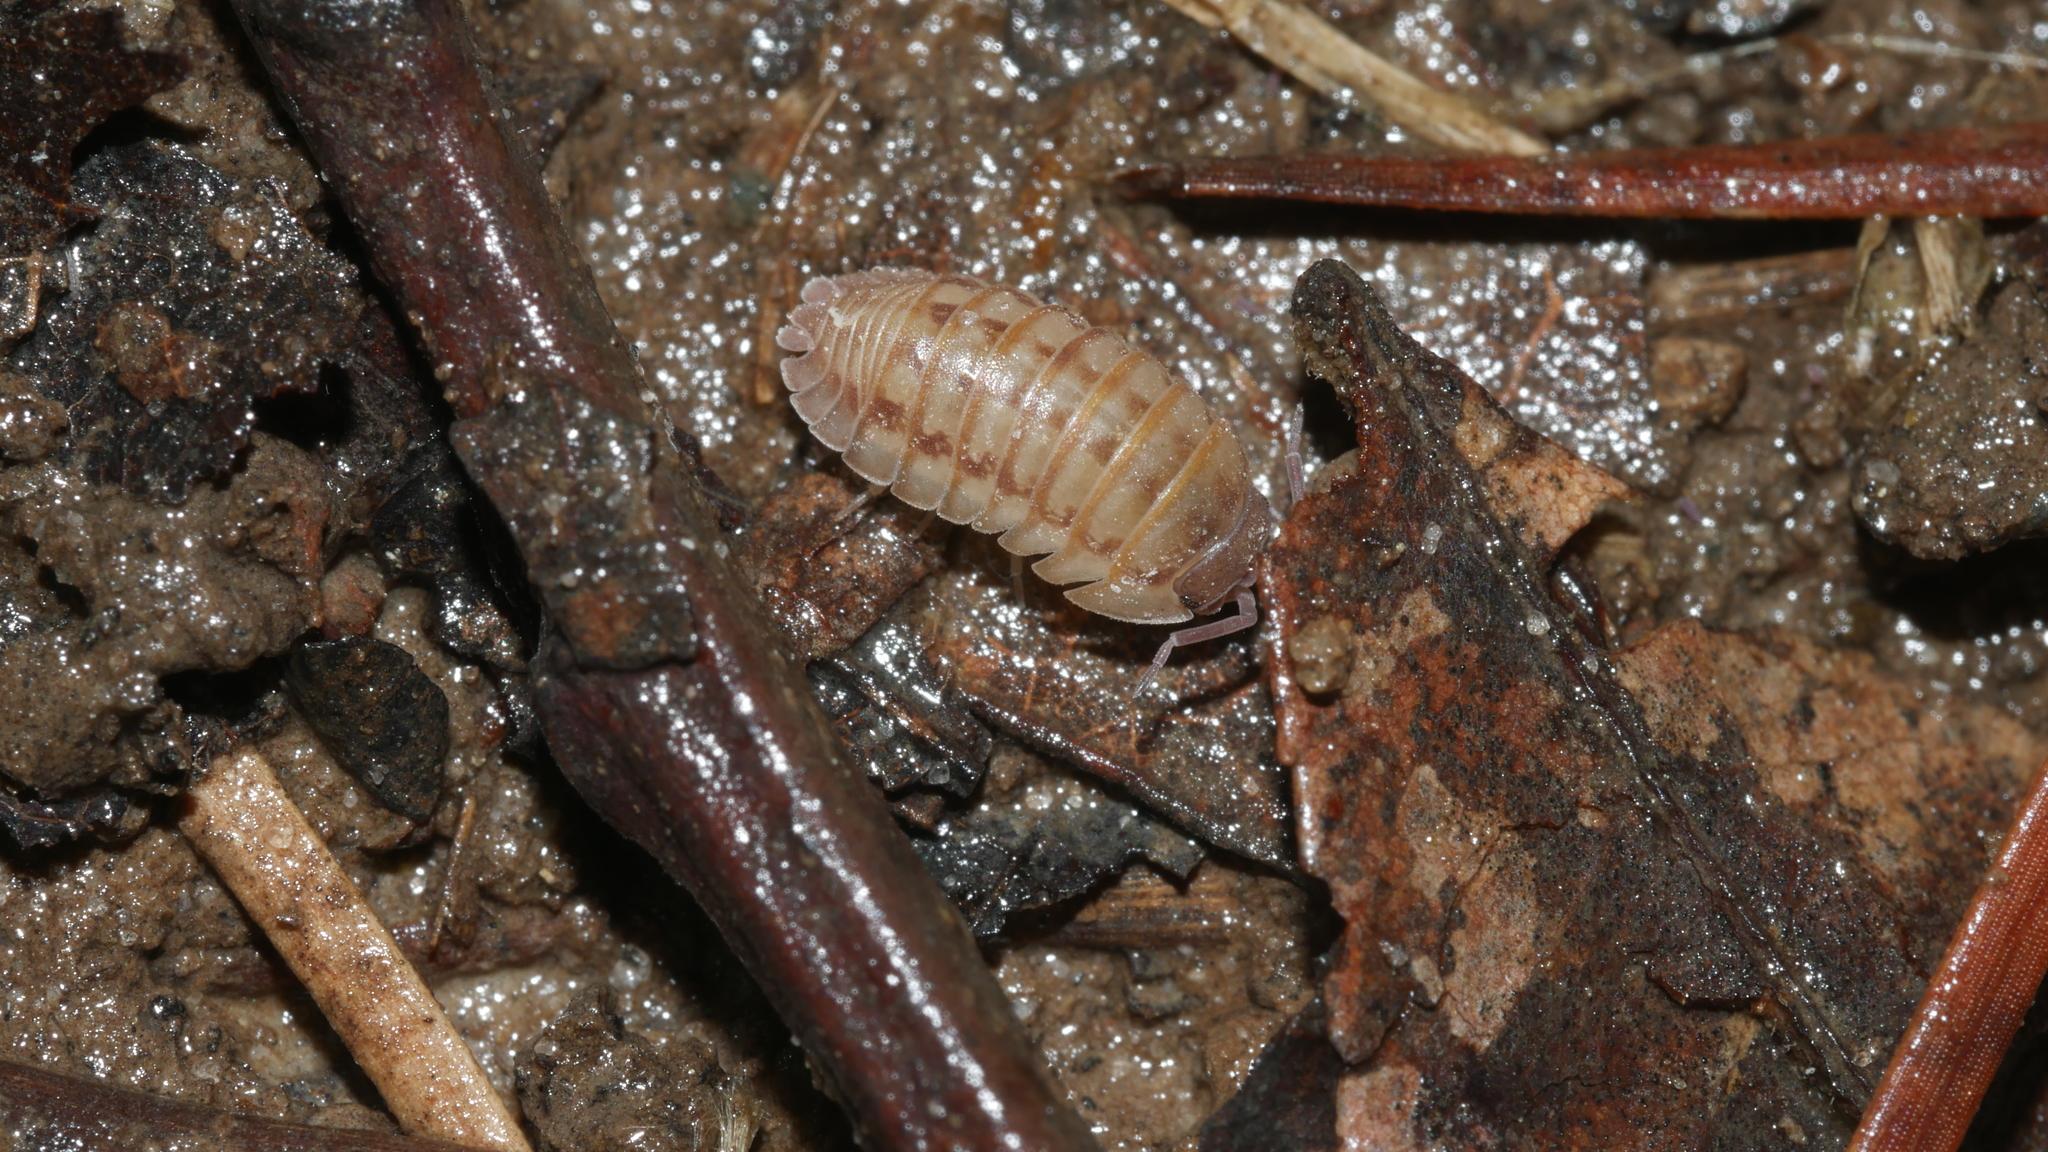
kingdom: Animalia
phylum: Arthropoda
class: Malacostraca
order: Isopoda
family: Armadillidiidae
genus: Armadillidium
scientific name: Armadillidium nasatum
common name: Isopod
